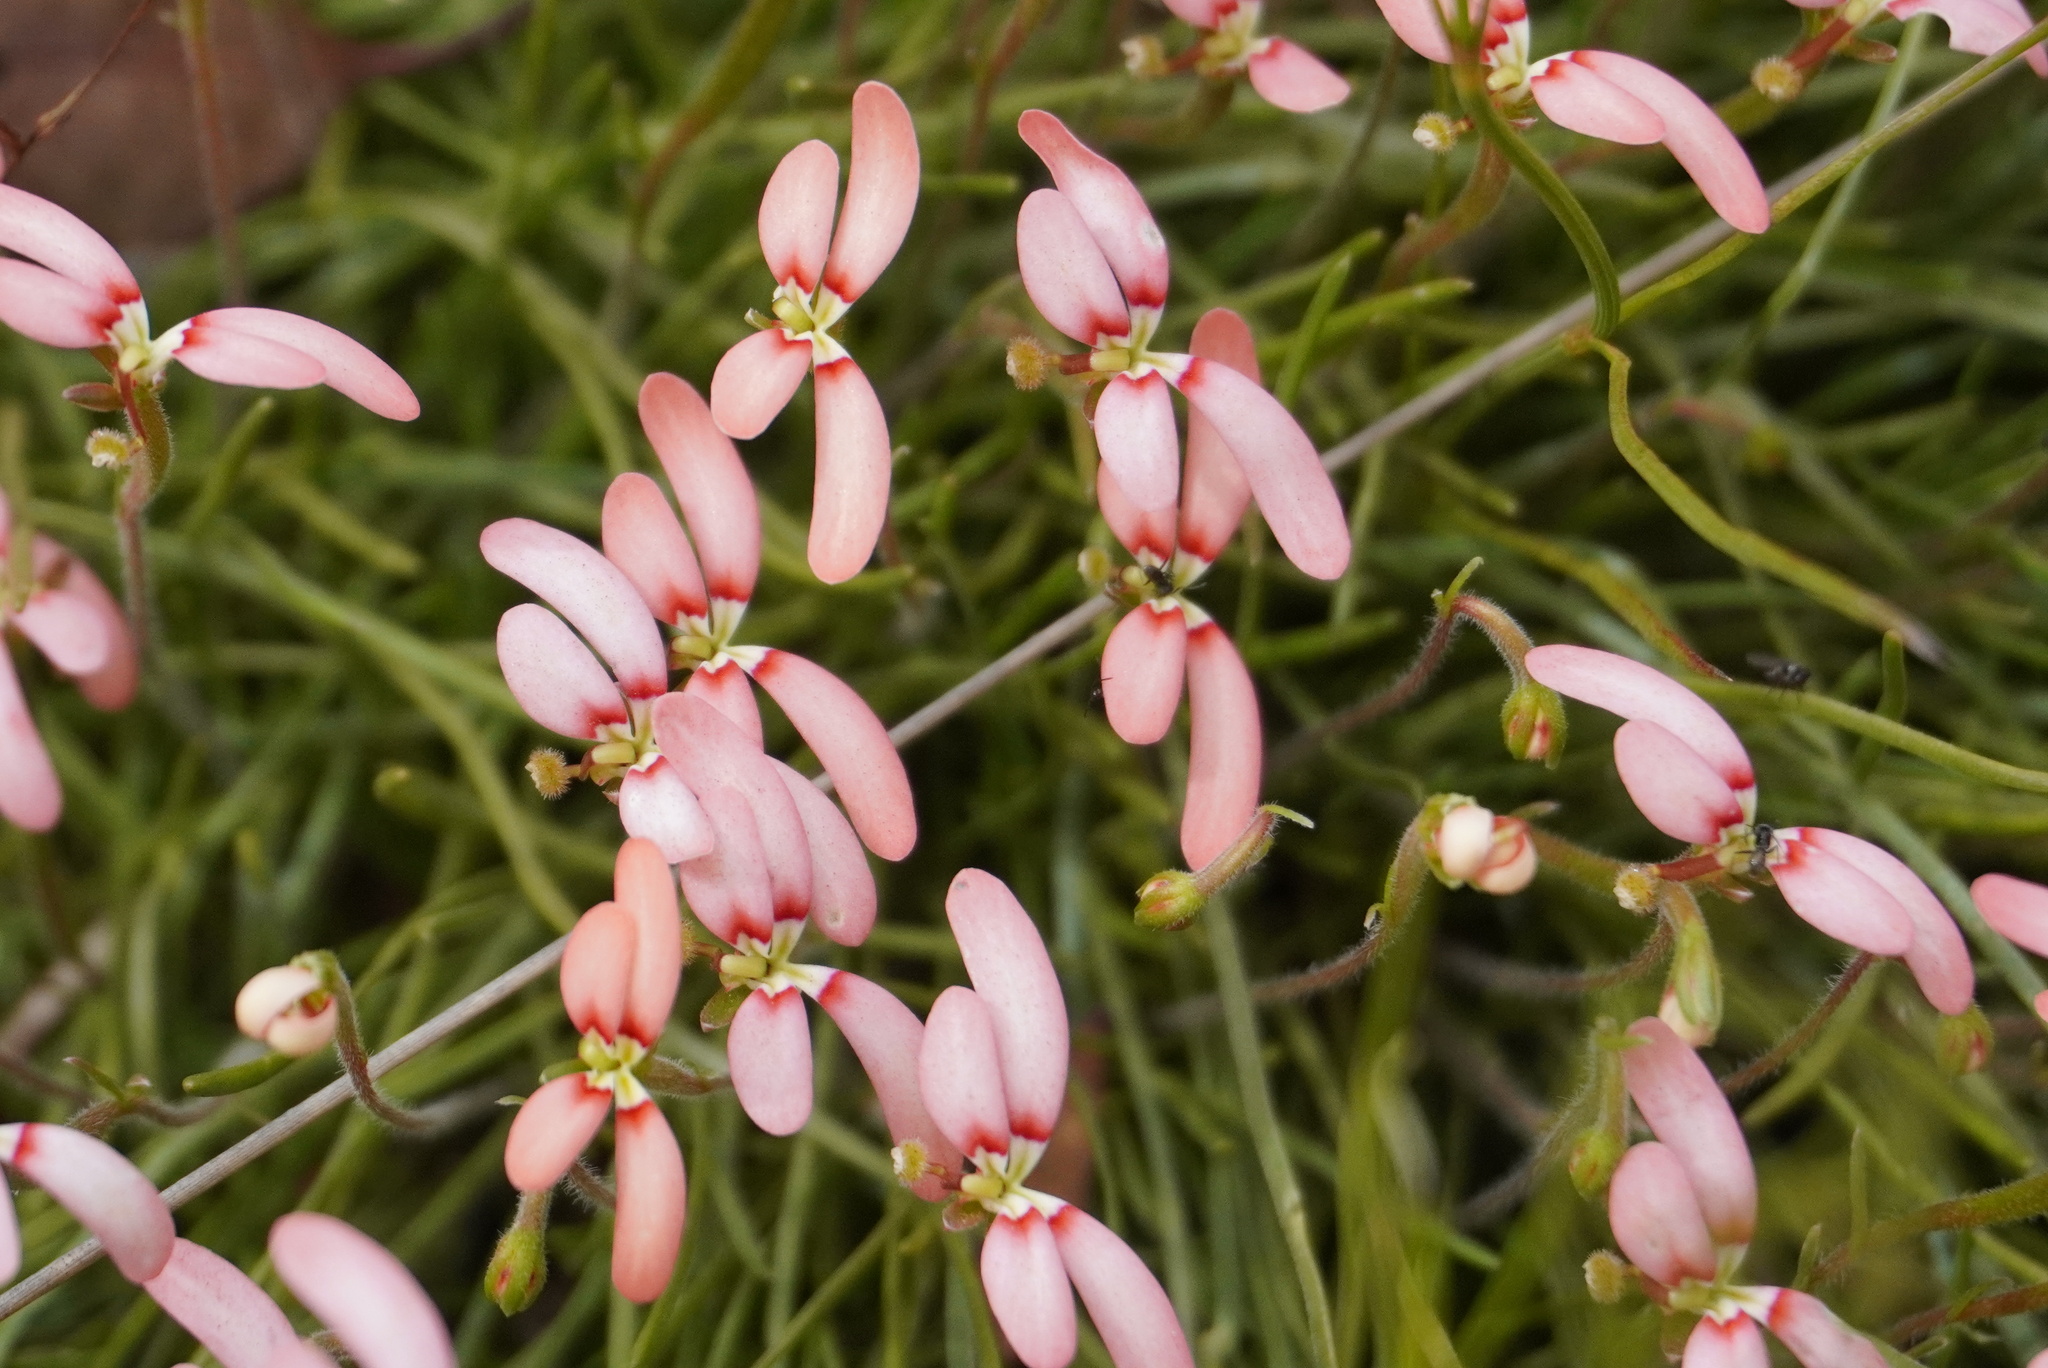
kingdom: Plantae
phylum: Tracheophyta
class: Magnoliopsida
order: Asterales
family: Stylidiaceae
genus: Stylidium
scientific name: Stylidium uniflorum
